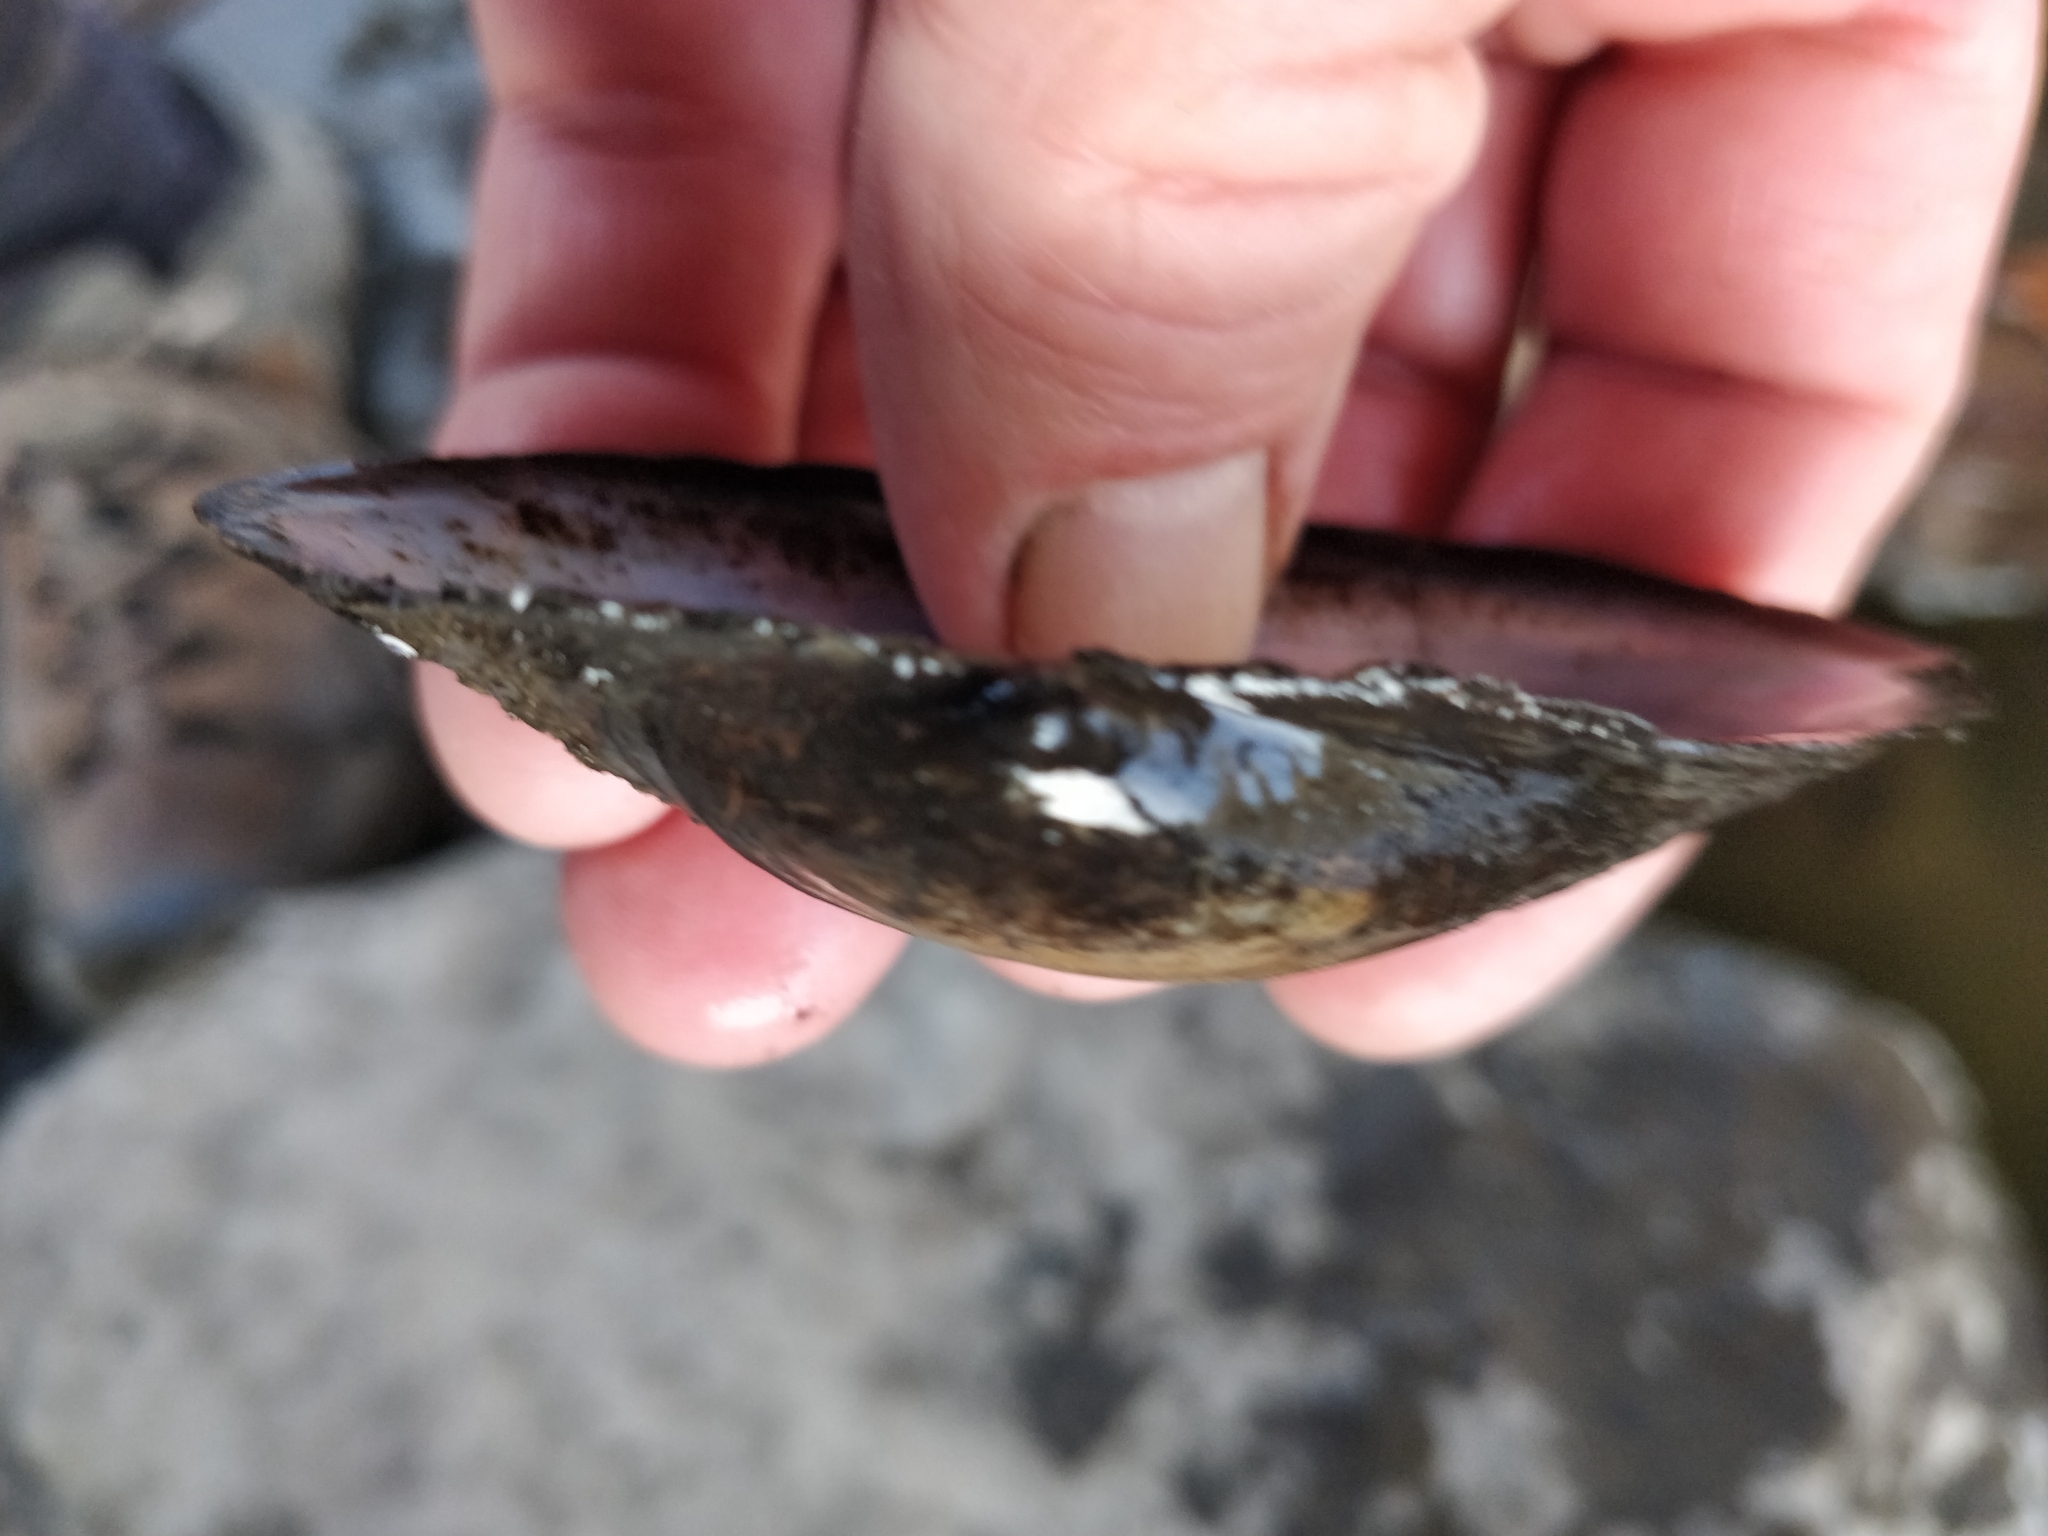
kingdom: Animalia
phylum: Mollusca
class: Bivalvia
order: Unionida
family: Unionidae
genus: Pyganodon
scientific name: Pyganodon grandis
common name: Giant floater
